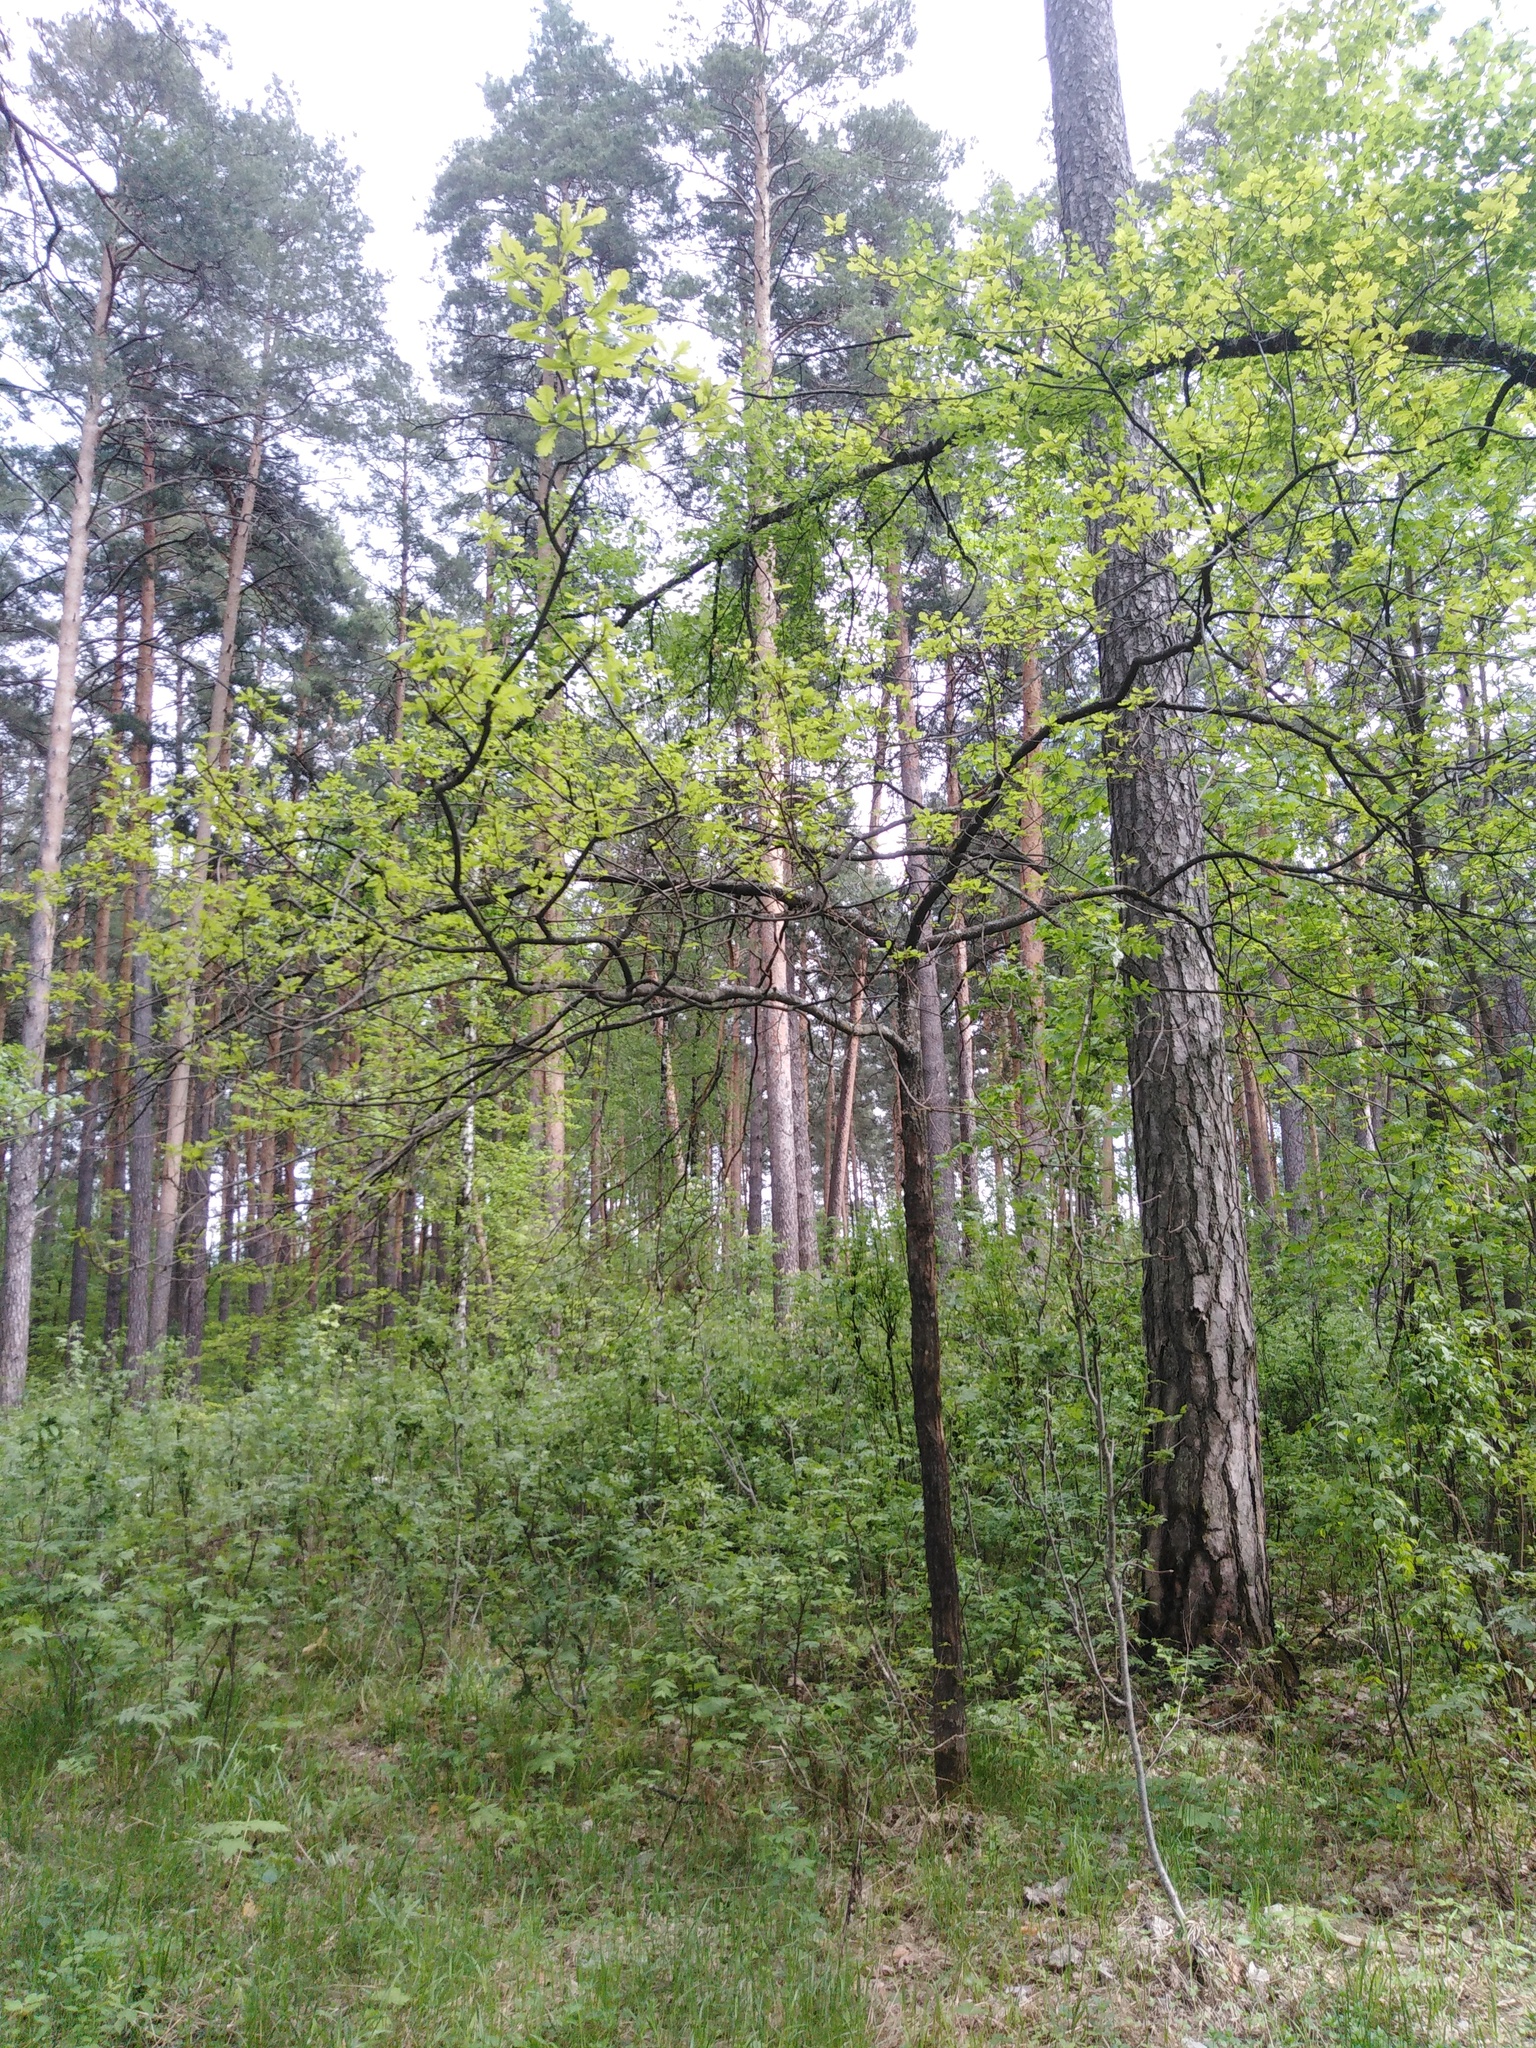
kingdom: Plantae
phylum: Tracheophyta
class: Magnoliopsida
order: Fagales
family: Fagaceae
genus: Quercus
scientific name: Quercus robur
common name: Pedunculate oak
